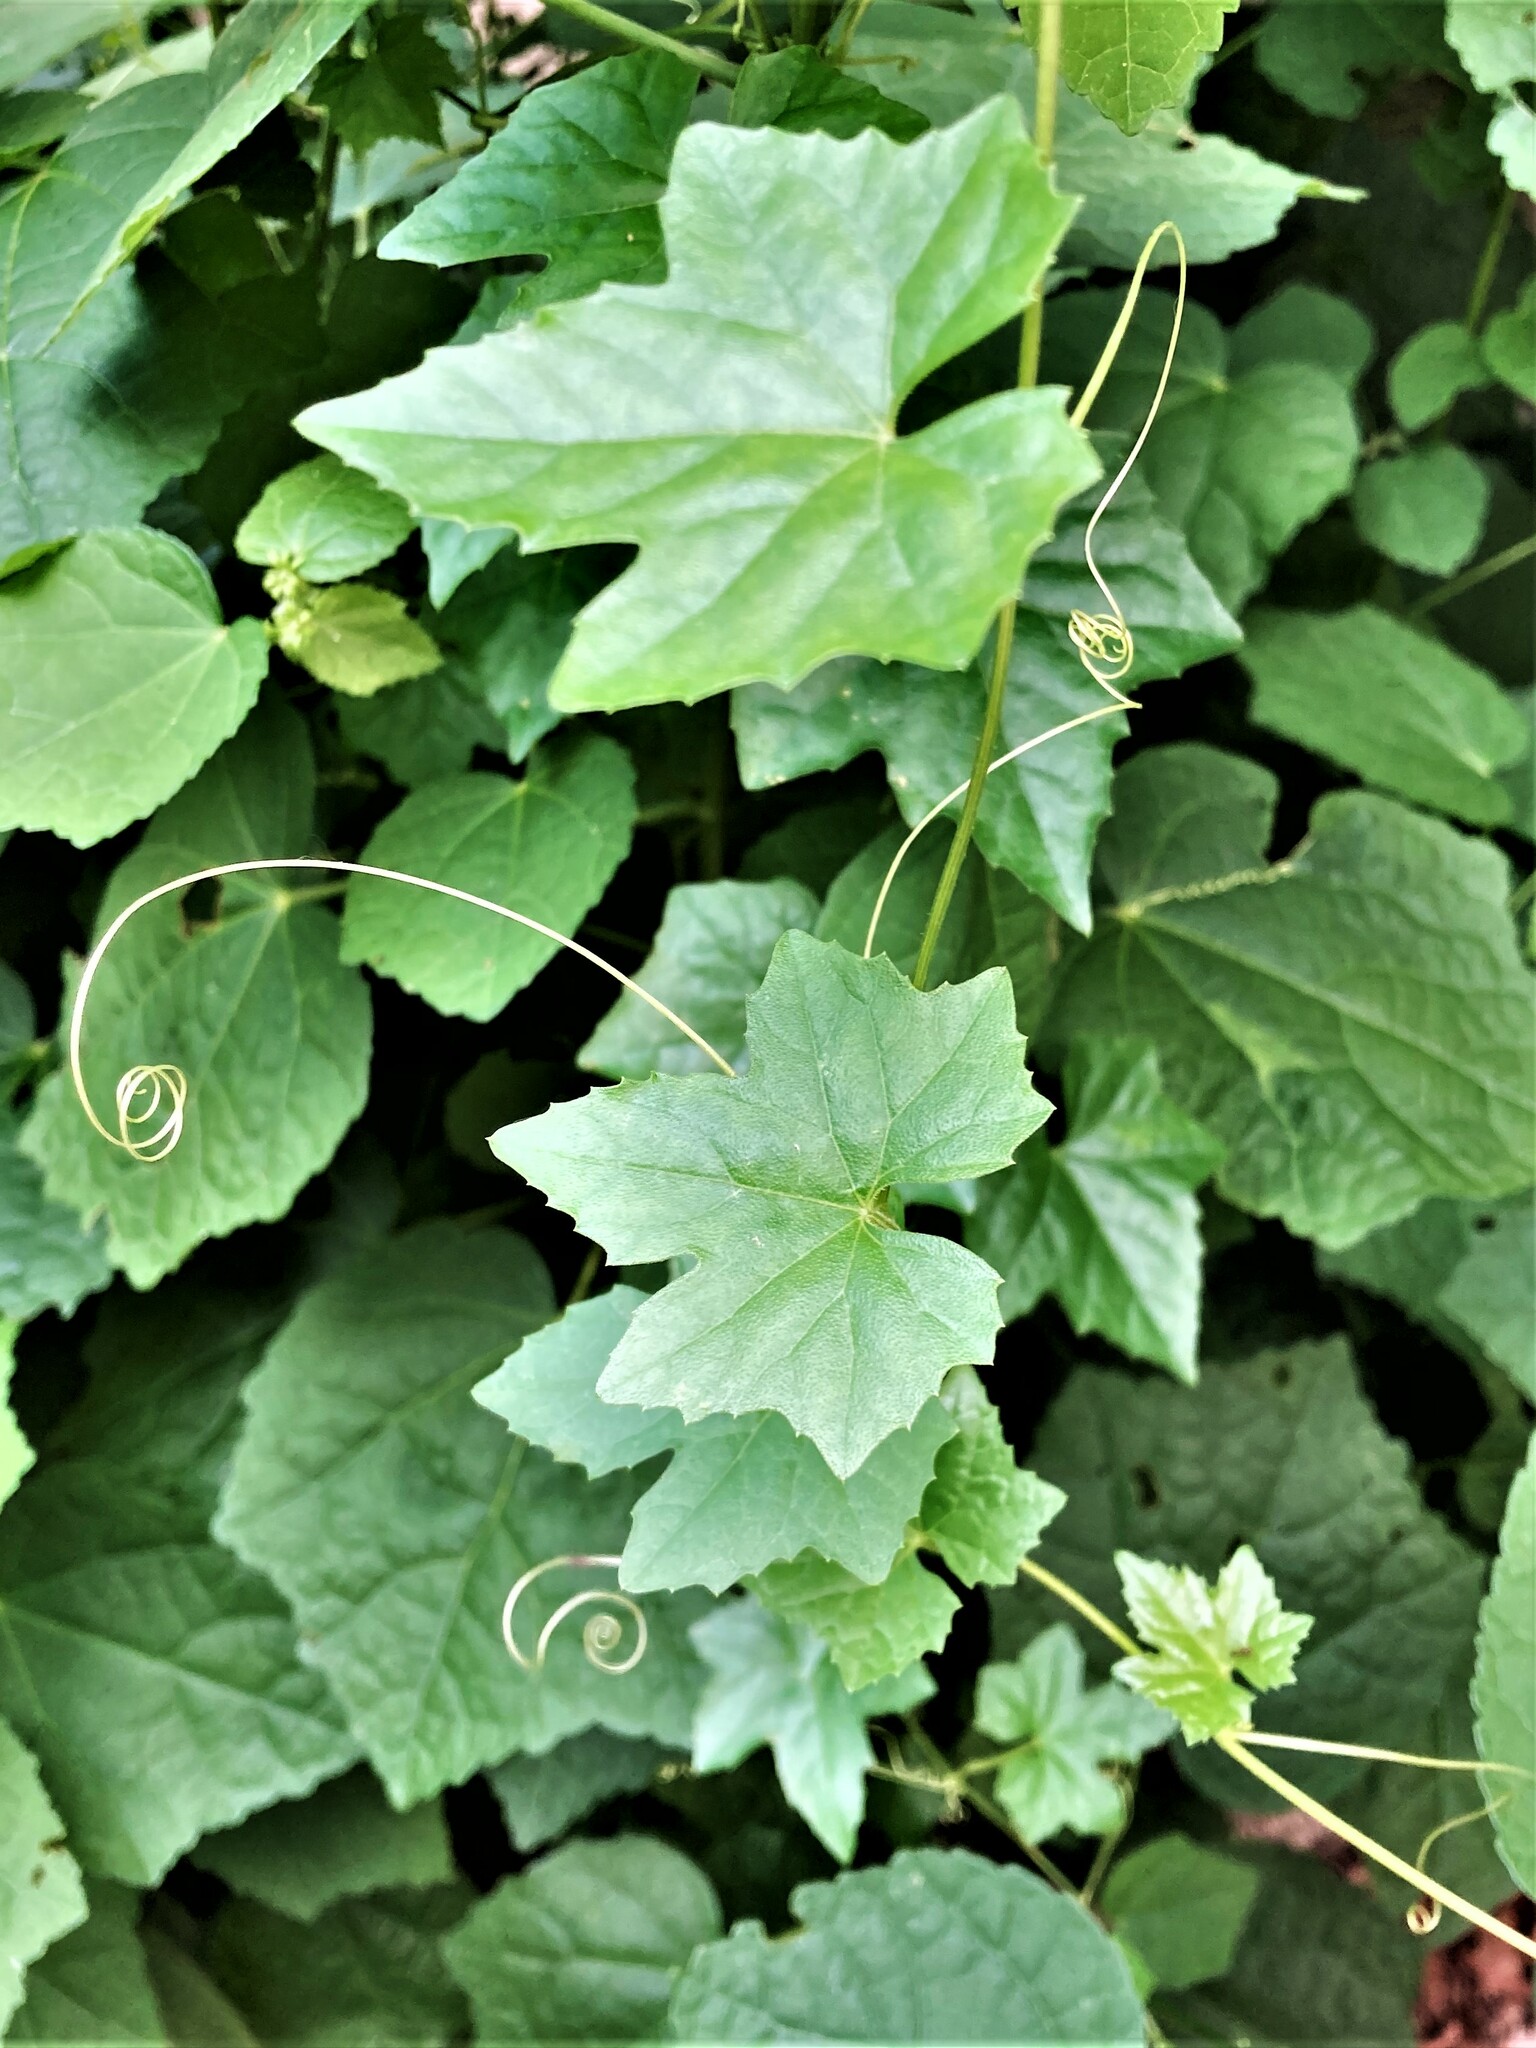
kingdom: Plantae
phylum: Tracheophyta
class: Magnoliopsida
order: Cucurbitales
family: Cucurbitaceae
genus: Melothria
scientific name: Melothria pendula
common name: Creeping-cucumber
